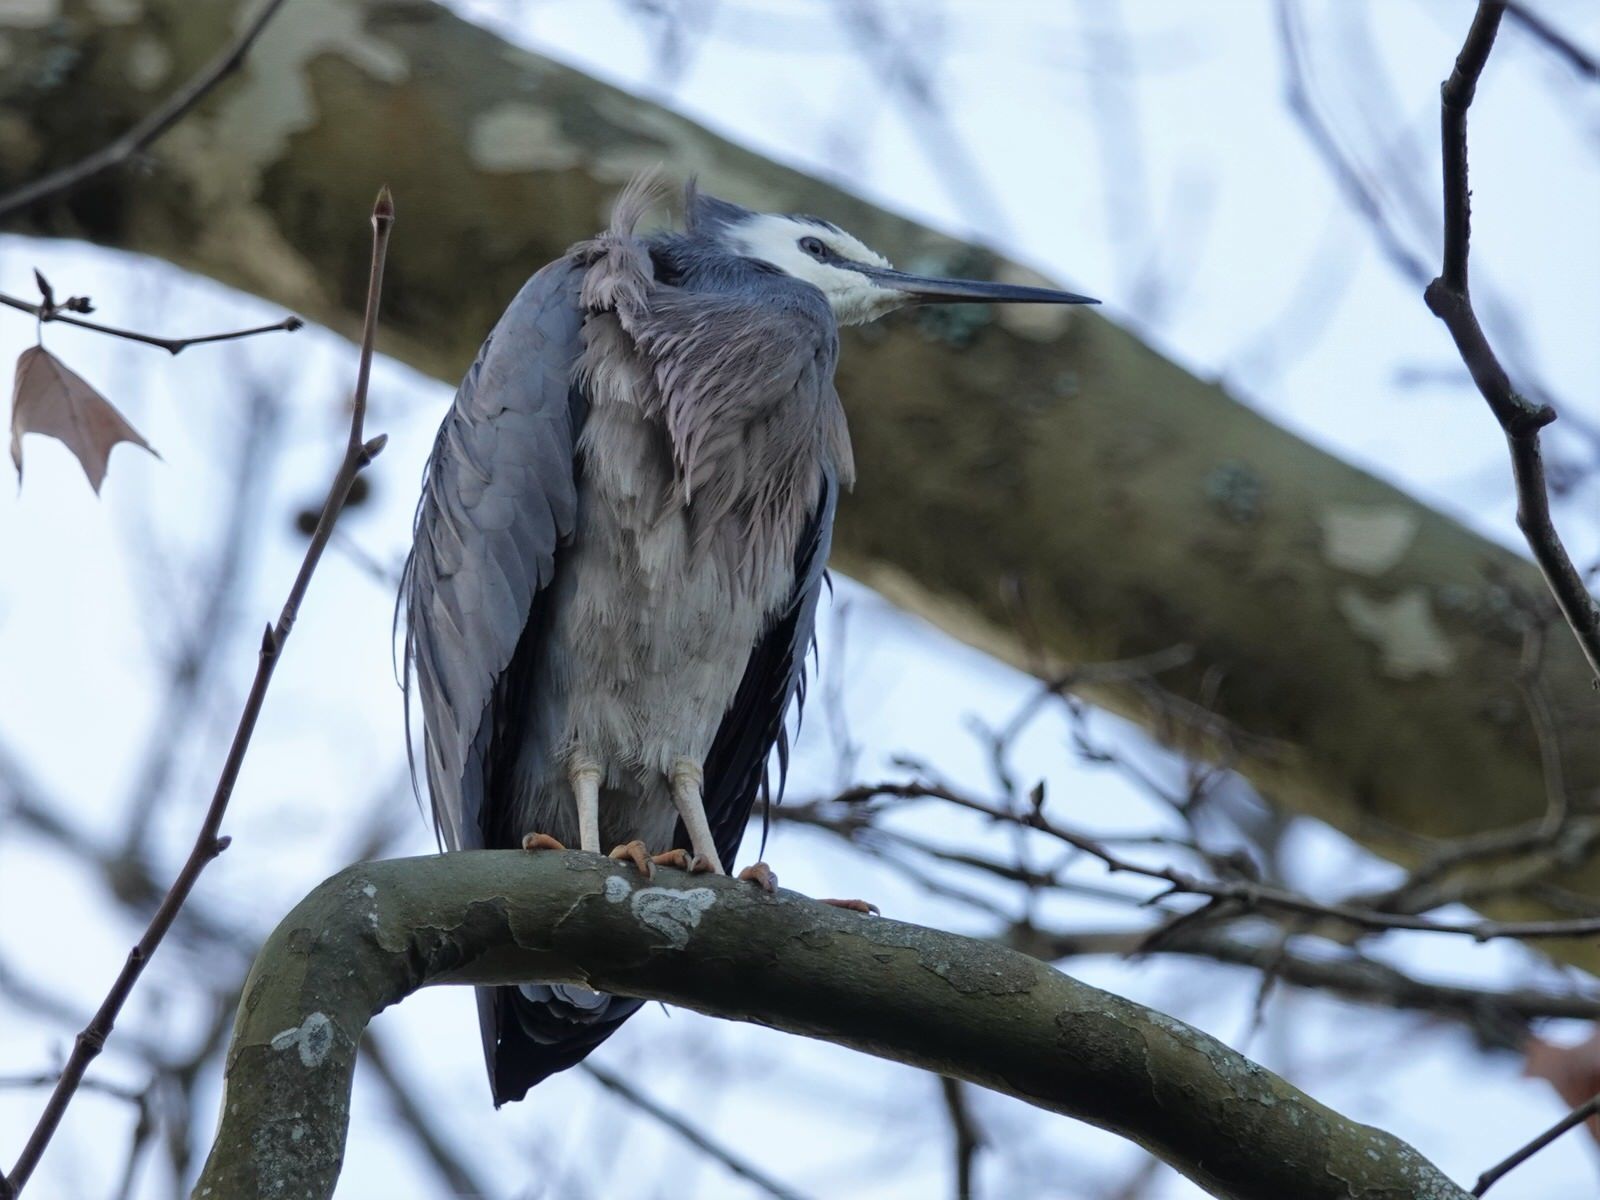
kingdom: Animalia
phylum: Chordata
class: Aves
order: Pelecaniformes
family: Ardeidae
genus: Egretta
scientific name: Egretta novaehollandiae
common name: White-faced heron
